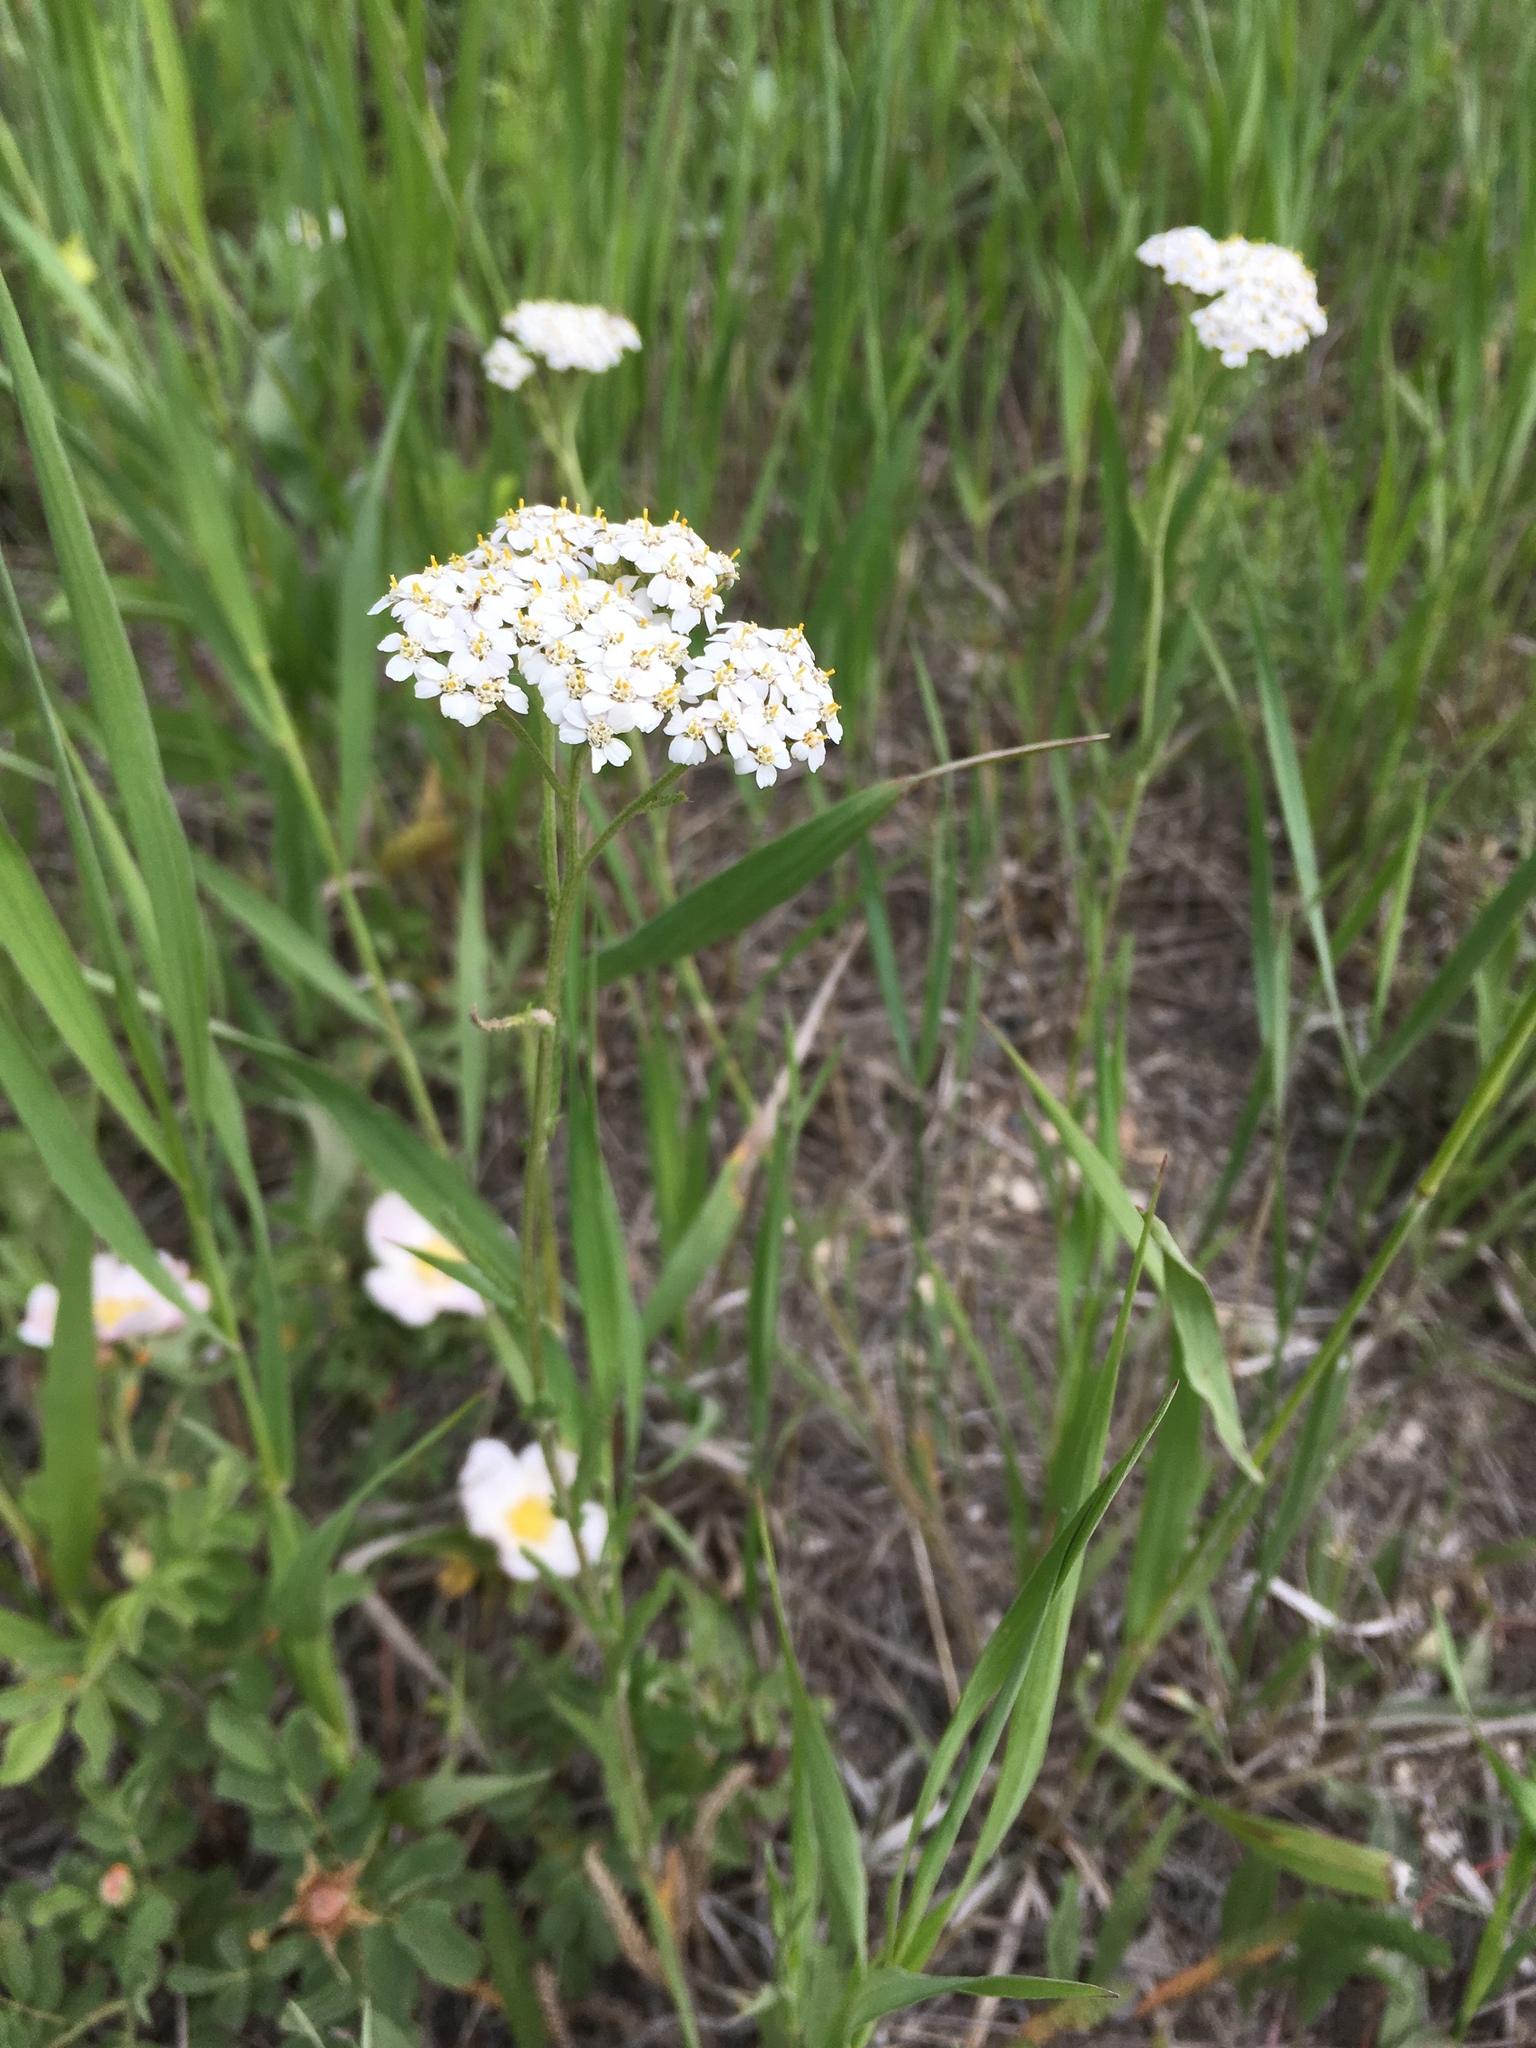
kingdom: Plantae
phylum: Tracheophyta
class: Magnoliopsida
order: Asterales
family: Asteraceae
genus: Achillea
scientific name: Achillea millefolium
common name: Yarrow
